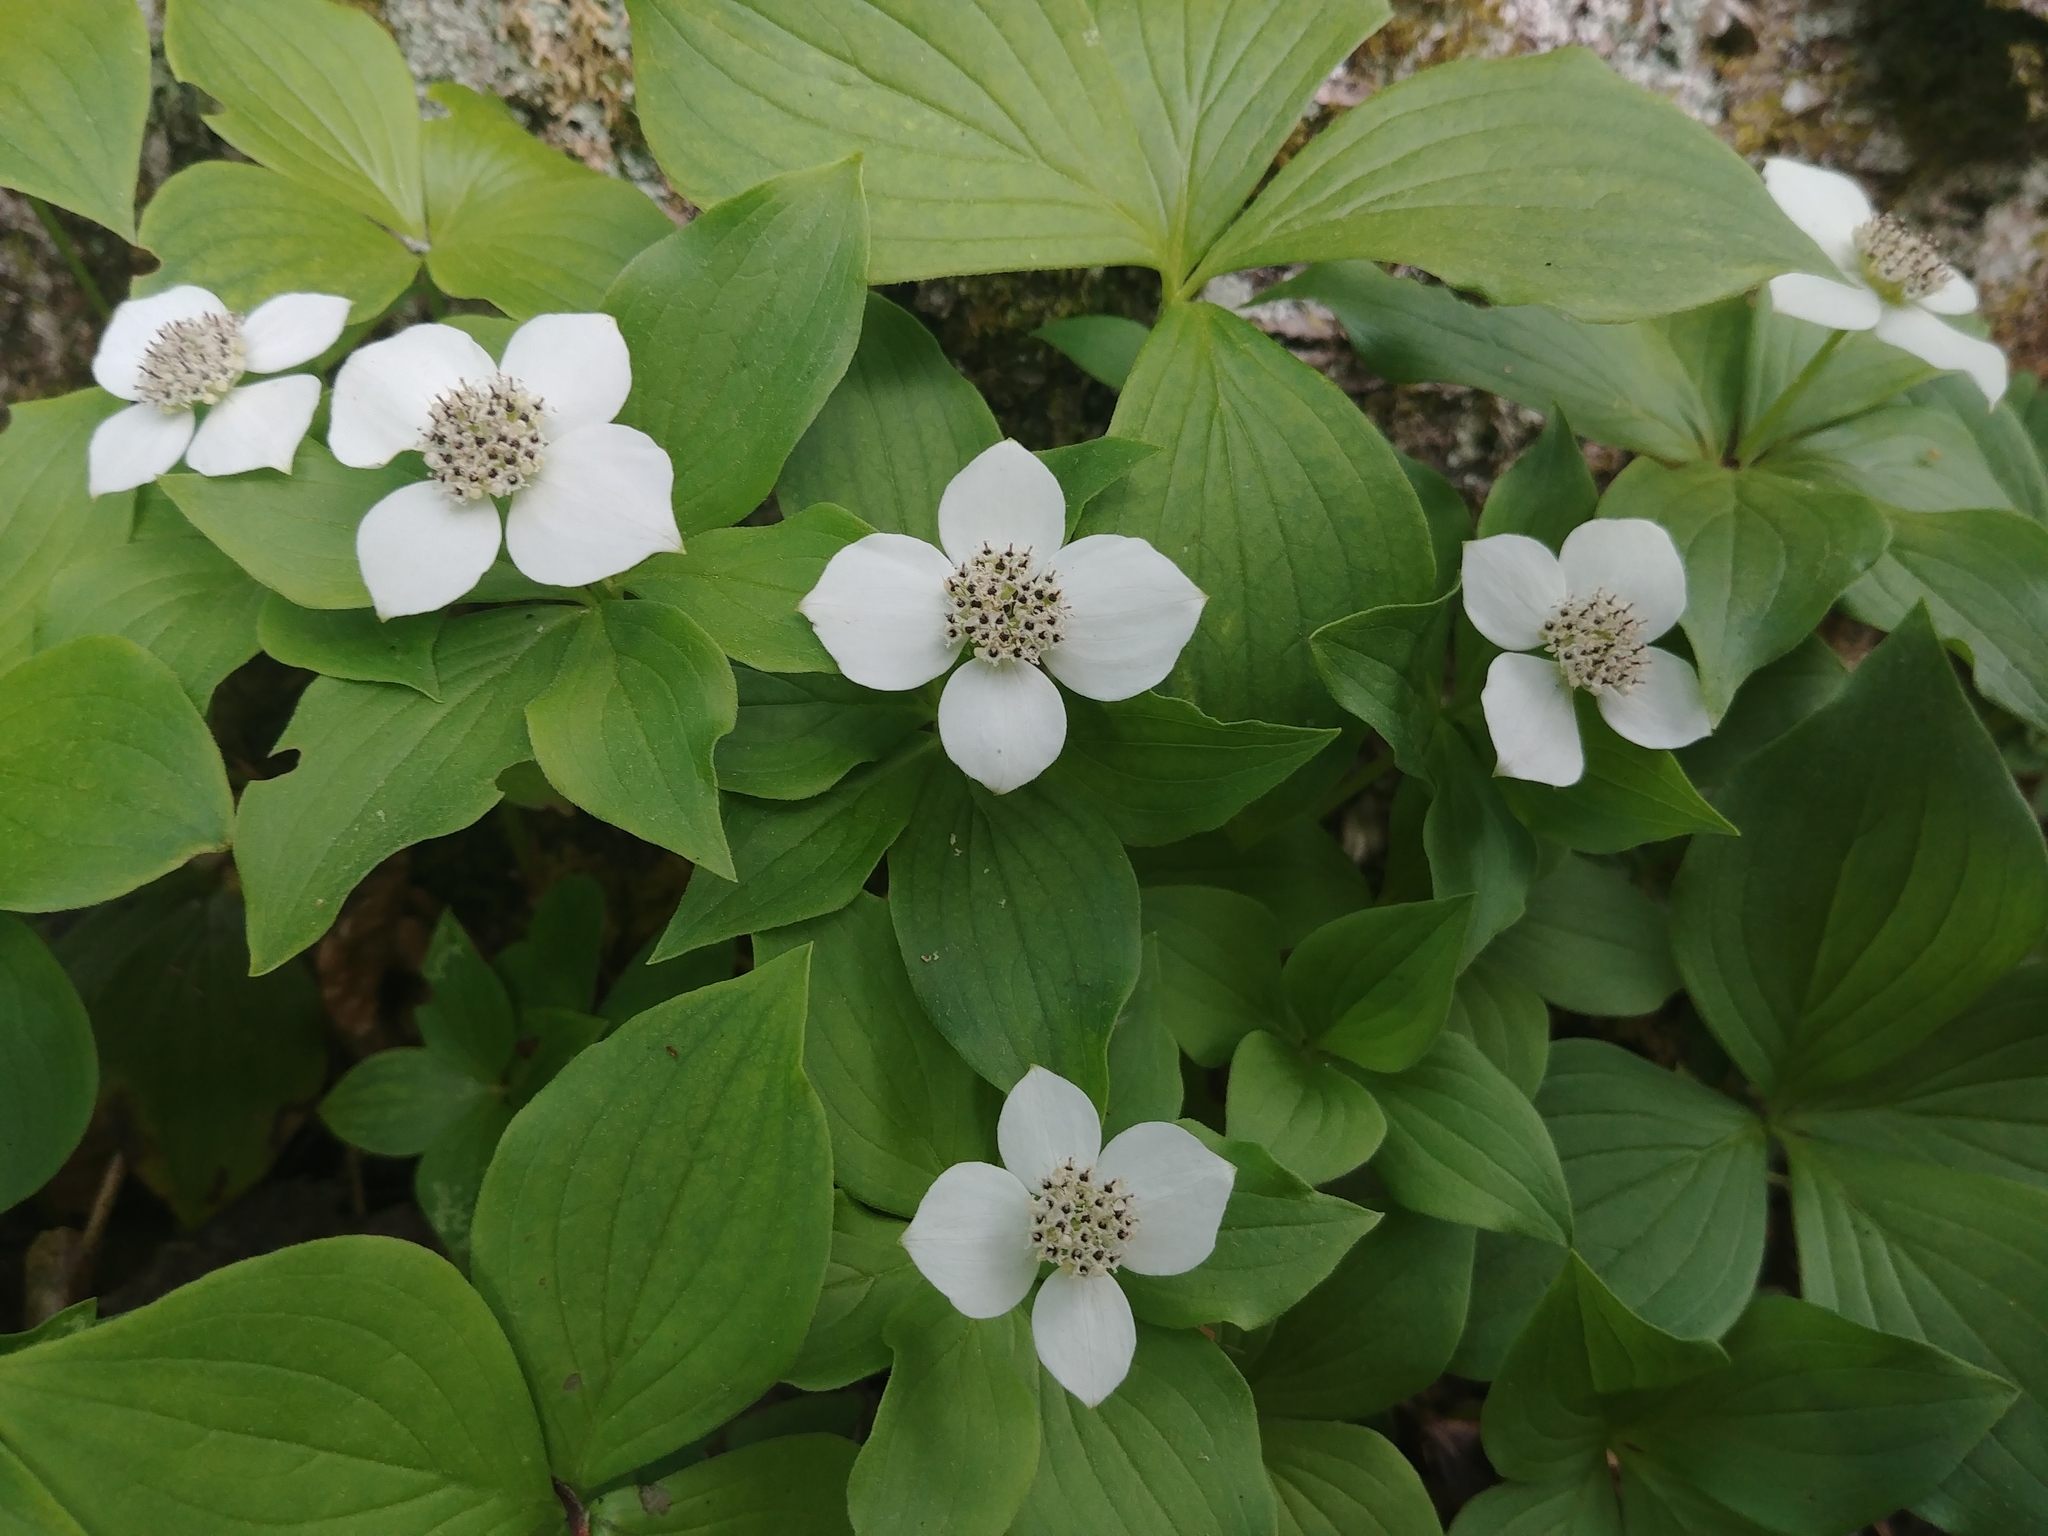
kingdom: Plantae
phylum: Tracheophyta
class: Magnoliopsida
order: Cornales
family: Cornaceae
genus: Cornus
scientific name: Cornus canadensis
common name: Creeping dogwood
